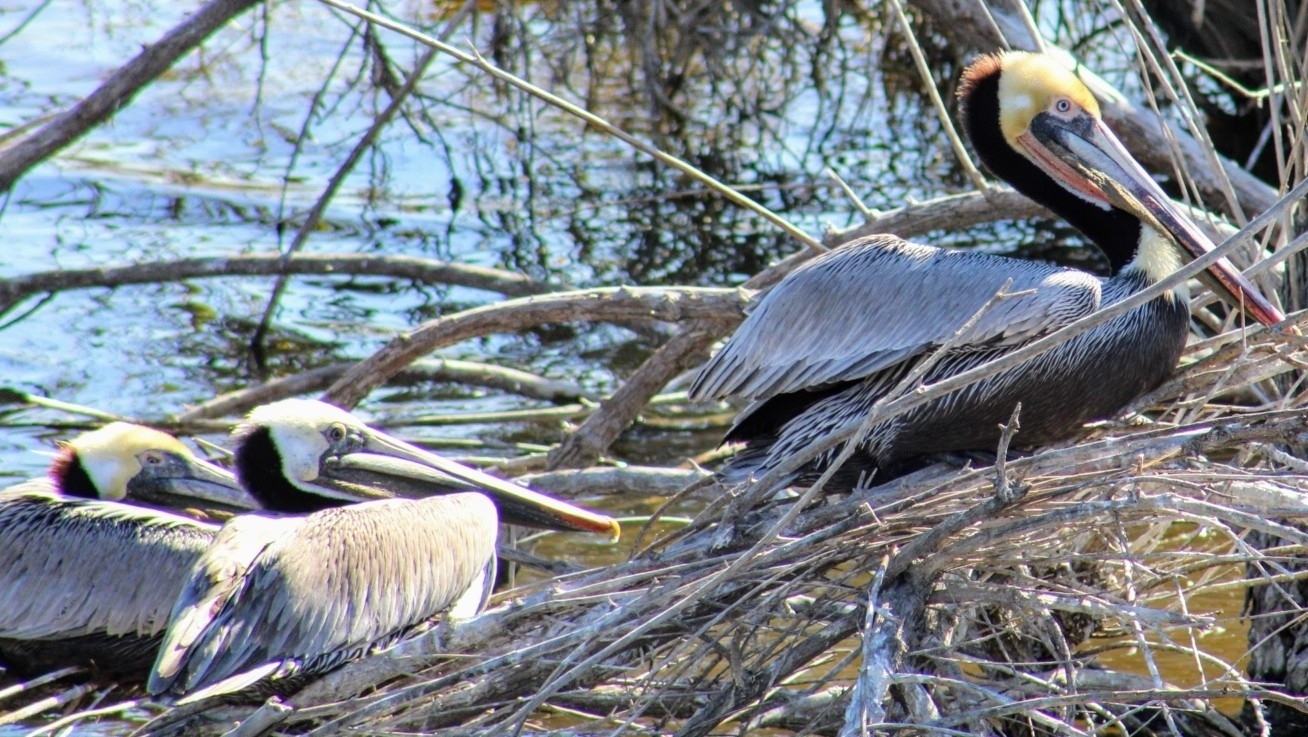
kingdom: Animalia
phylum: Chordata
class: Aves
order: Pelecaniformes
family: Pelecanidae
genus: Pelecanus
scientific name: Pelecanus occidentalis
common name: Brown pelican
